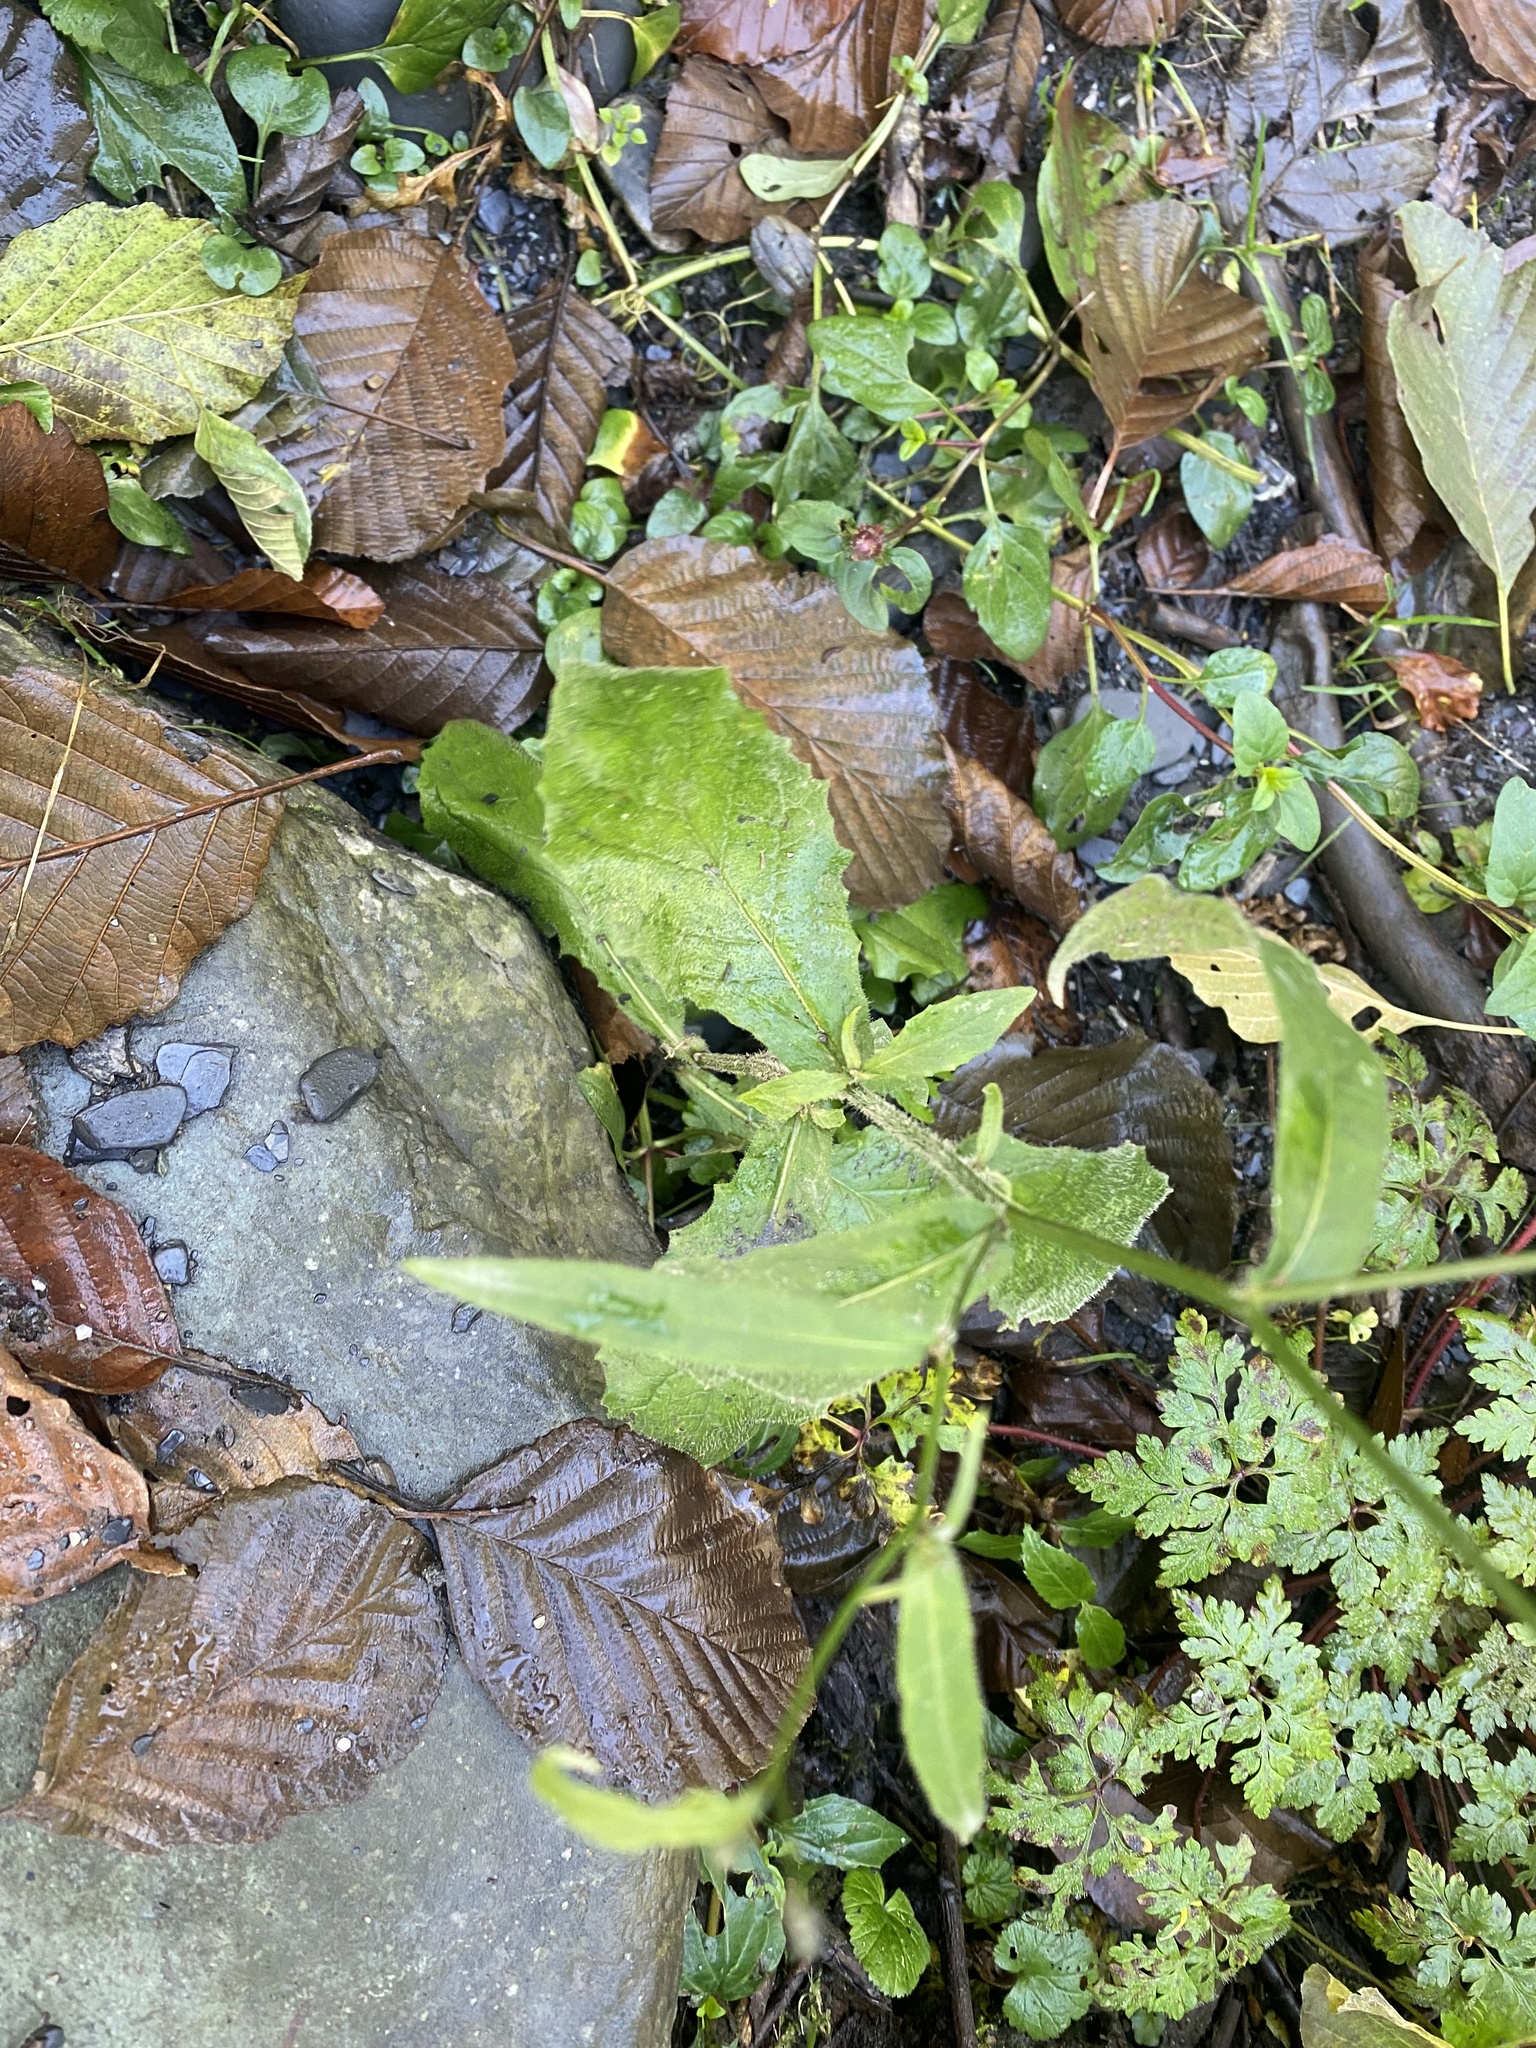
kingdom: Plantae
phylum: Tracheophyta
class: Magnoliopsida
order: Asterales
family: Asteraceae
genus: Lapsana
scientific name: Lapsana communis
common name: Nipplewort
